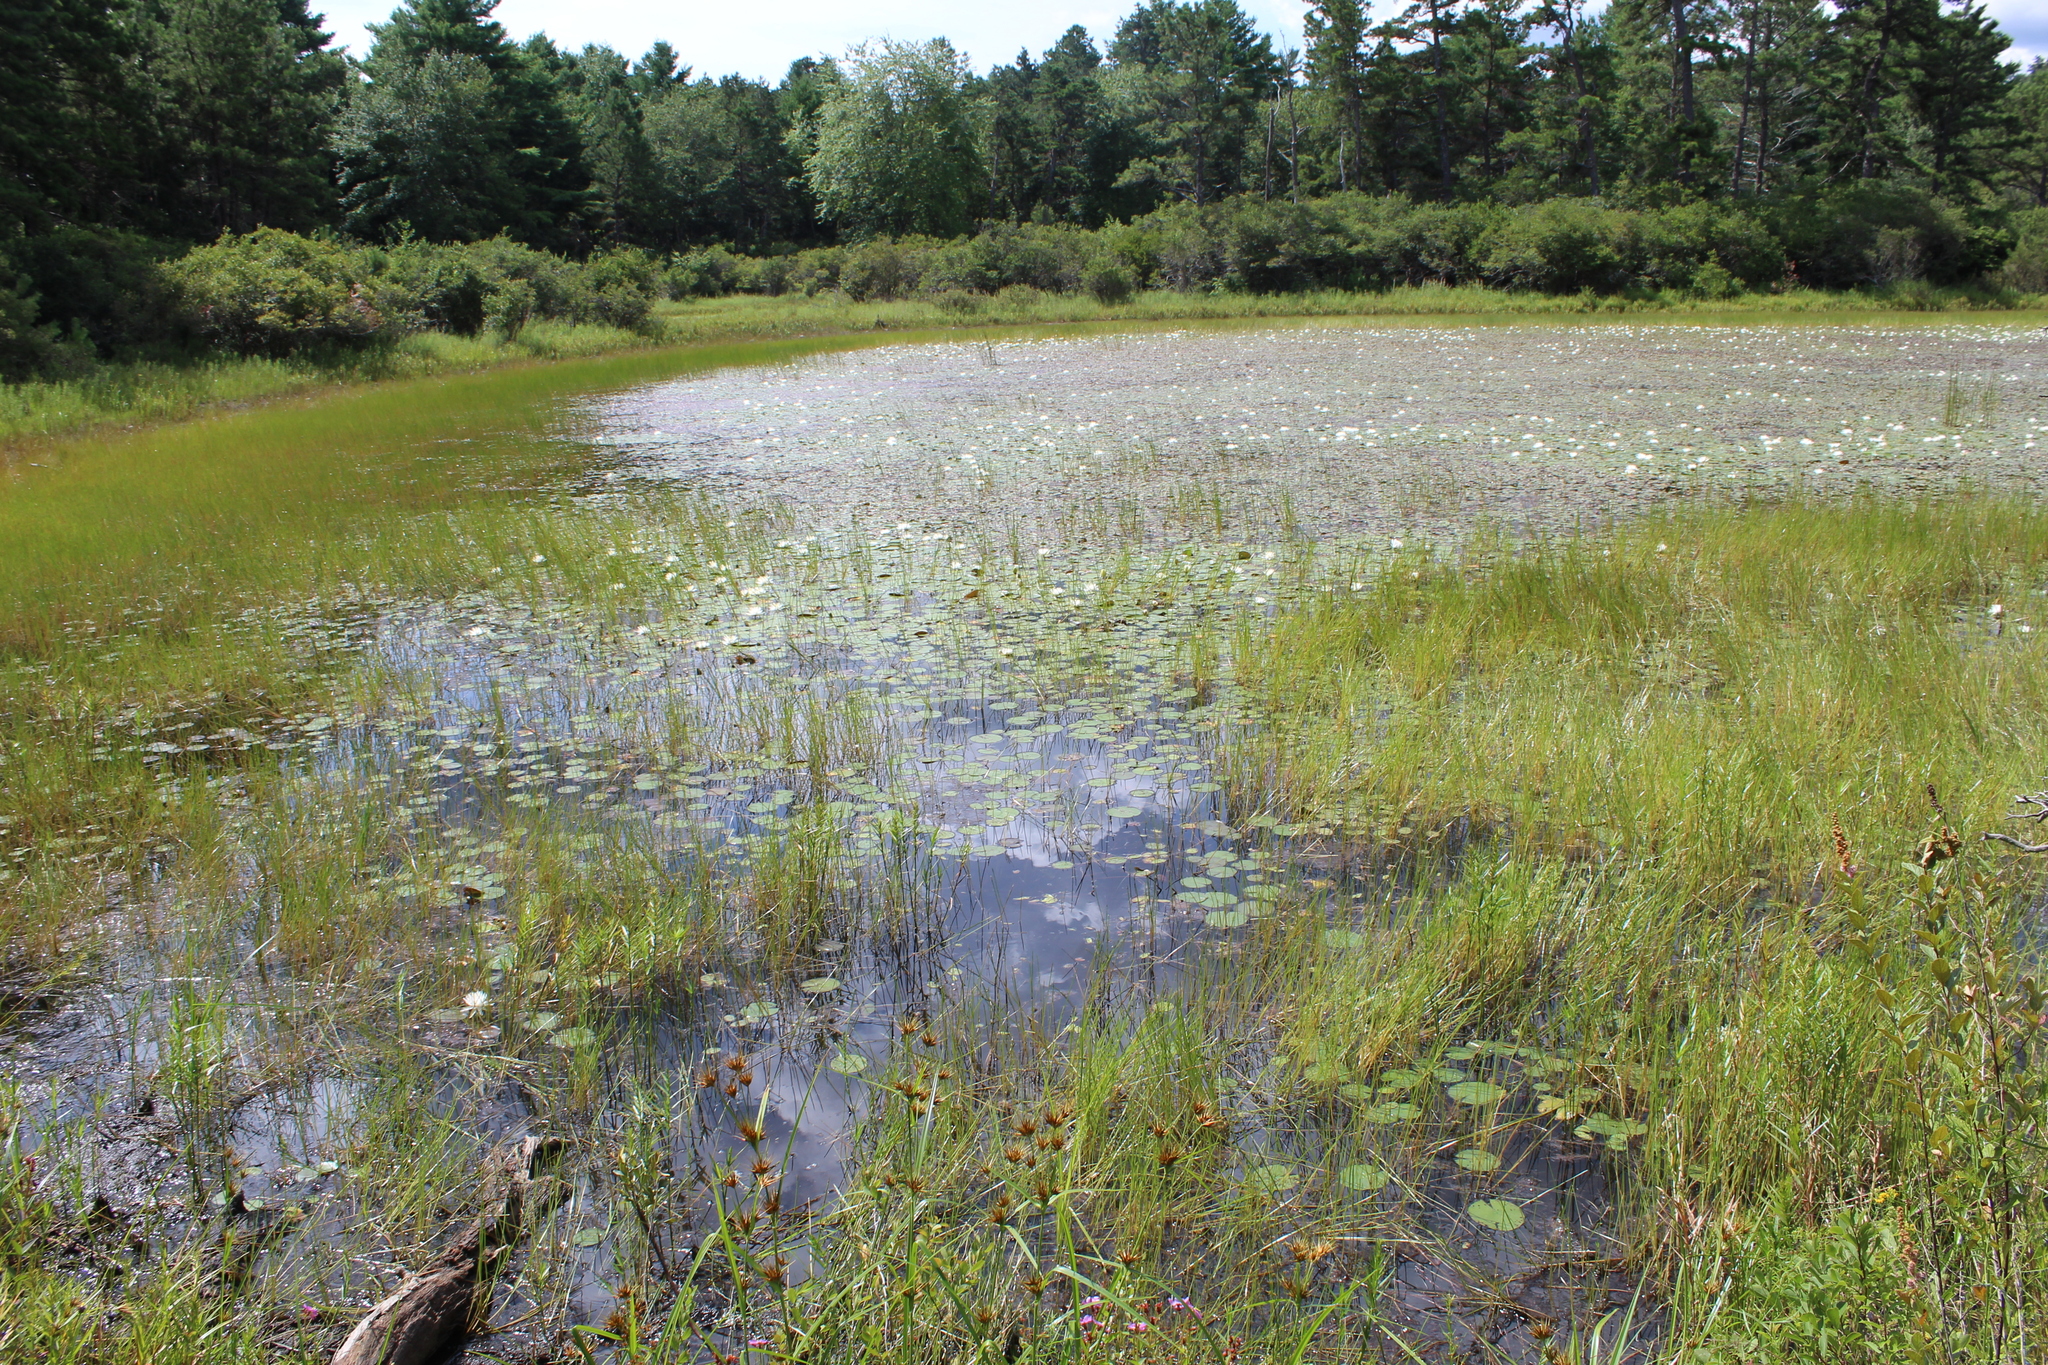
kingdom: Plantae
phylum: Tracheophyta
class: Liliopsida
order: Poales
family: Cyperaceae
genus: Eleocharis
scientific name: Eleocharis robbinsii
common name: Robbins' spikerush
